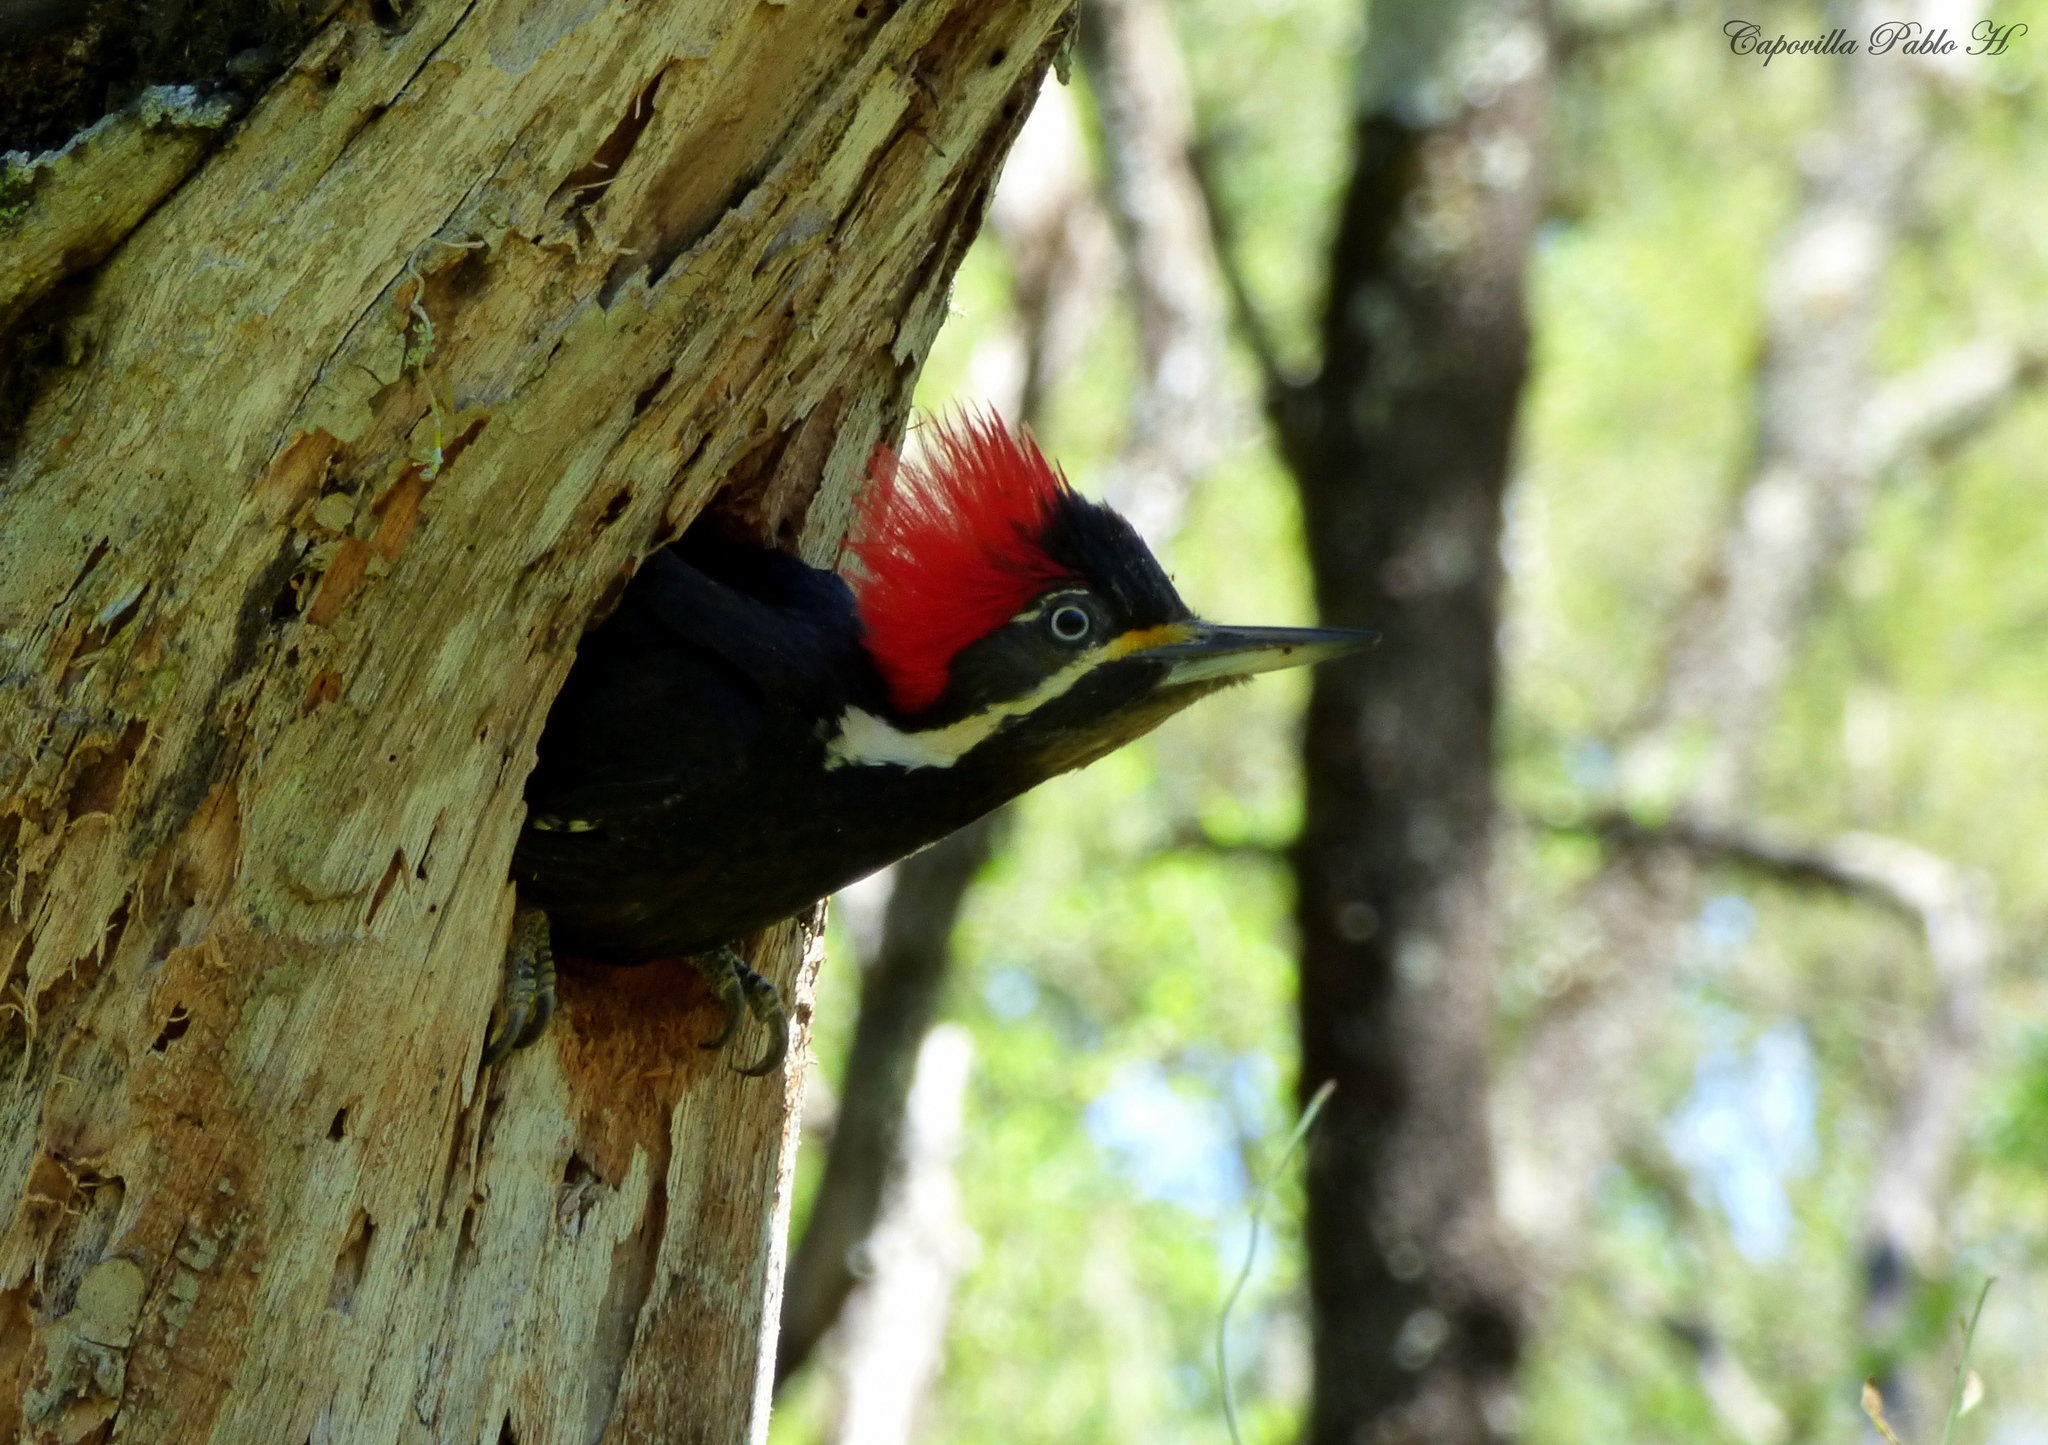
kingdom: Animalia
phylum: Chordata
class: Aves
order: Piciformes
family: Picidae
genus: Dryocopus
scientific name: Dryocopus schulzii
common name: Black-bodied woodpecker
